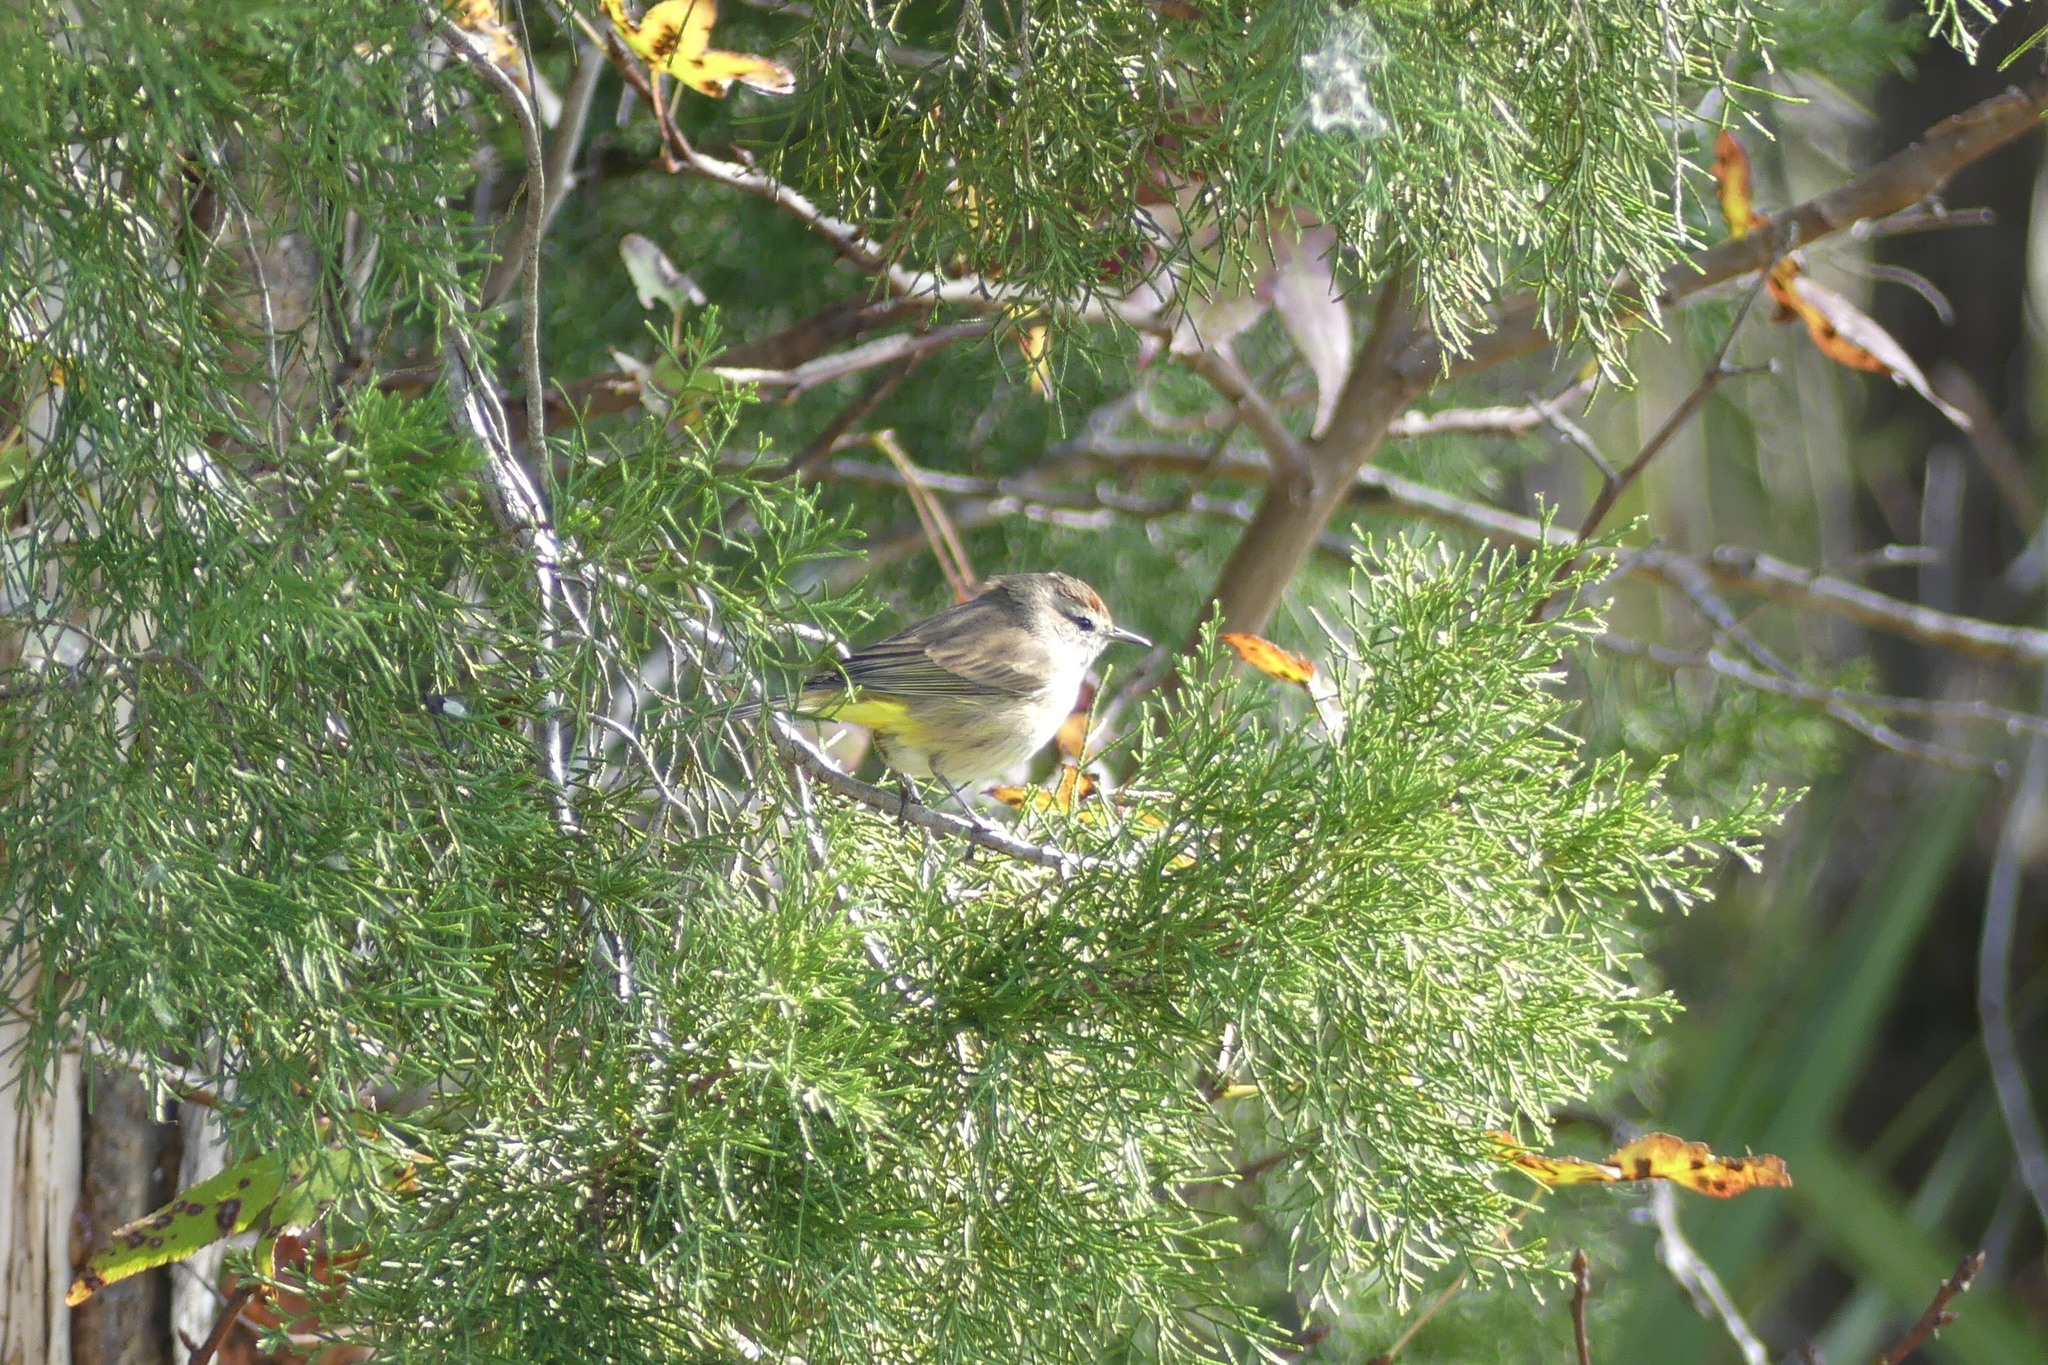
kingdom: Animalia
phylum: Chordata
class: Aves
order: Passeriformes
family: Parulidae
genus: Setophaga
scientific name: Setophaga palmarum
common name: Palm warbler
